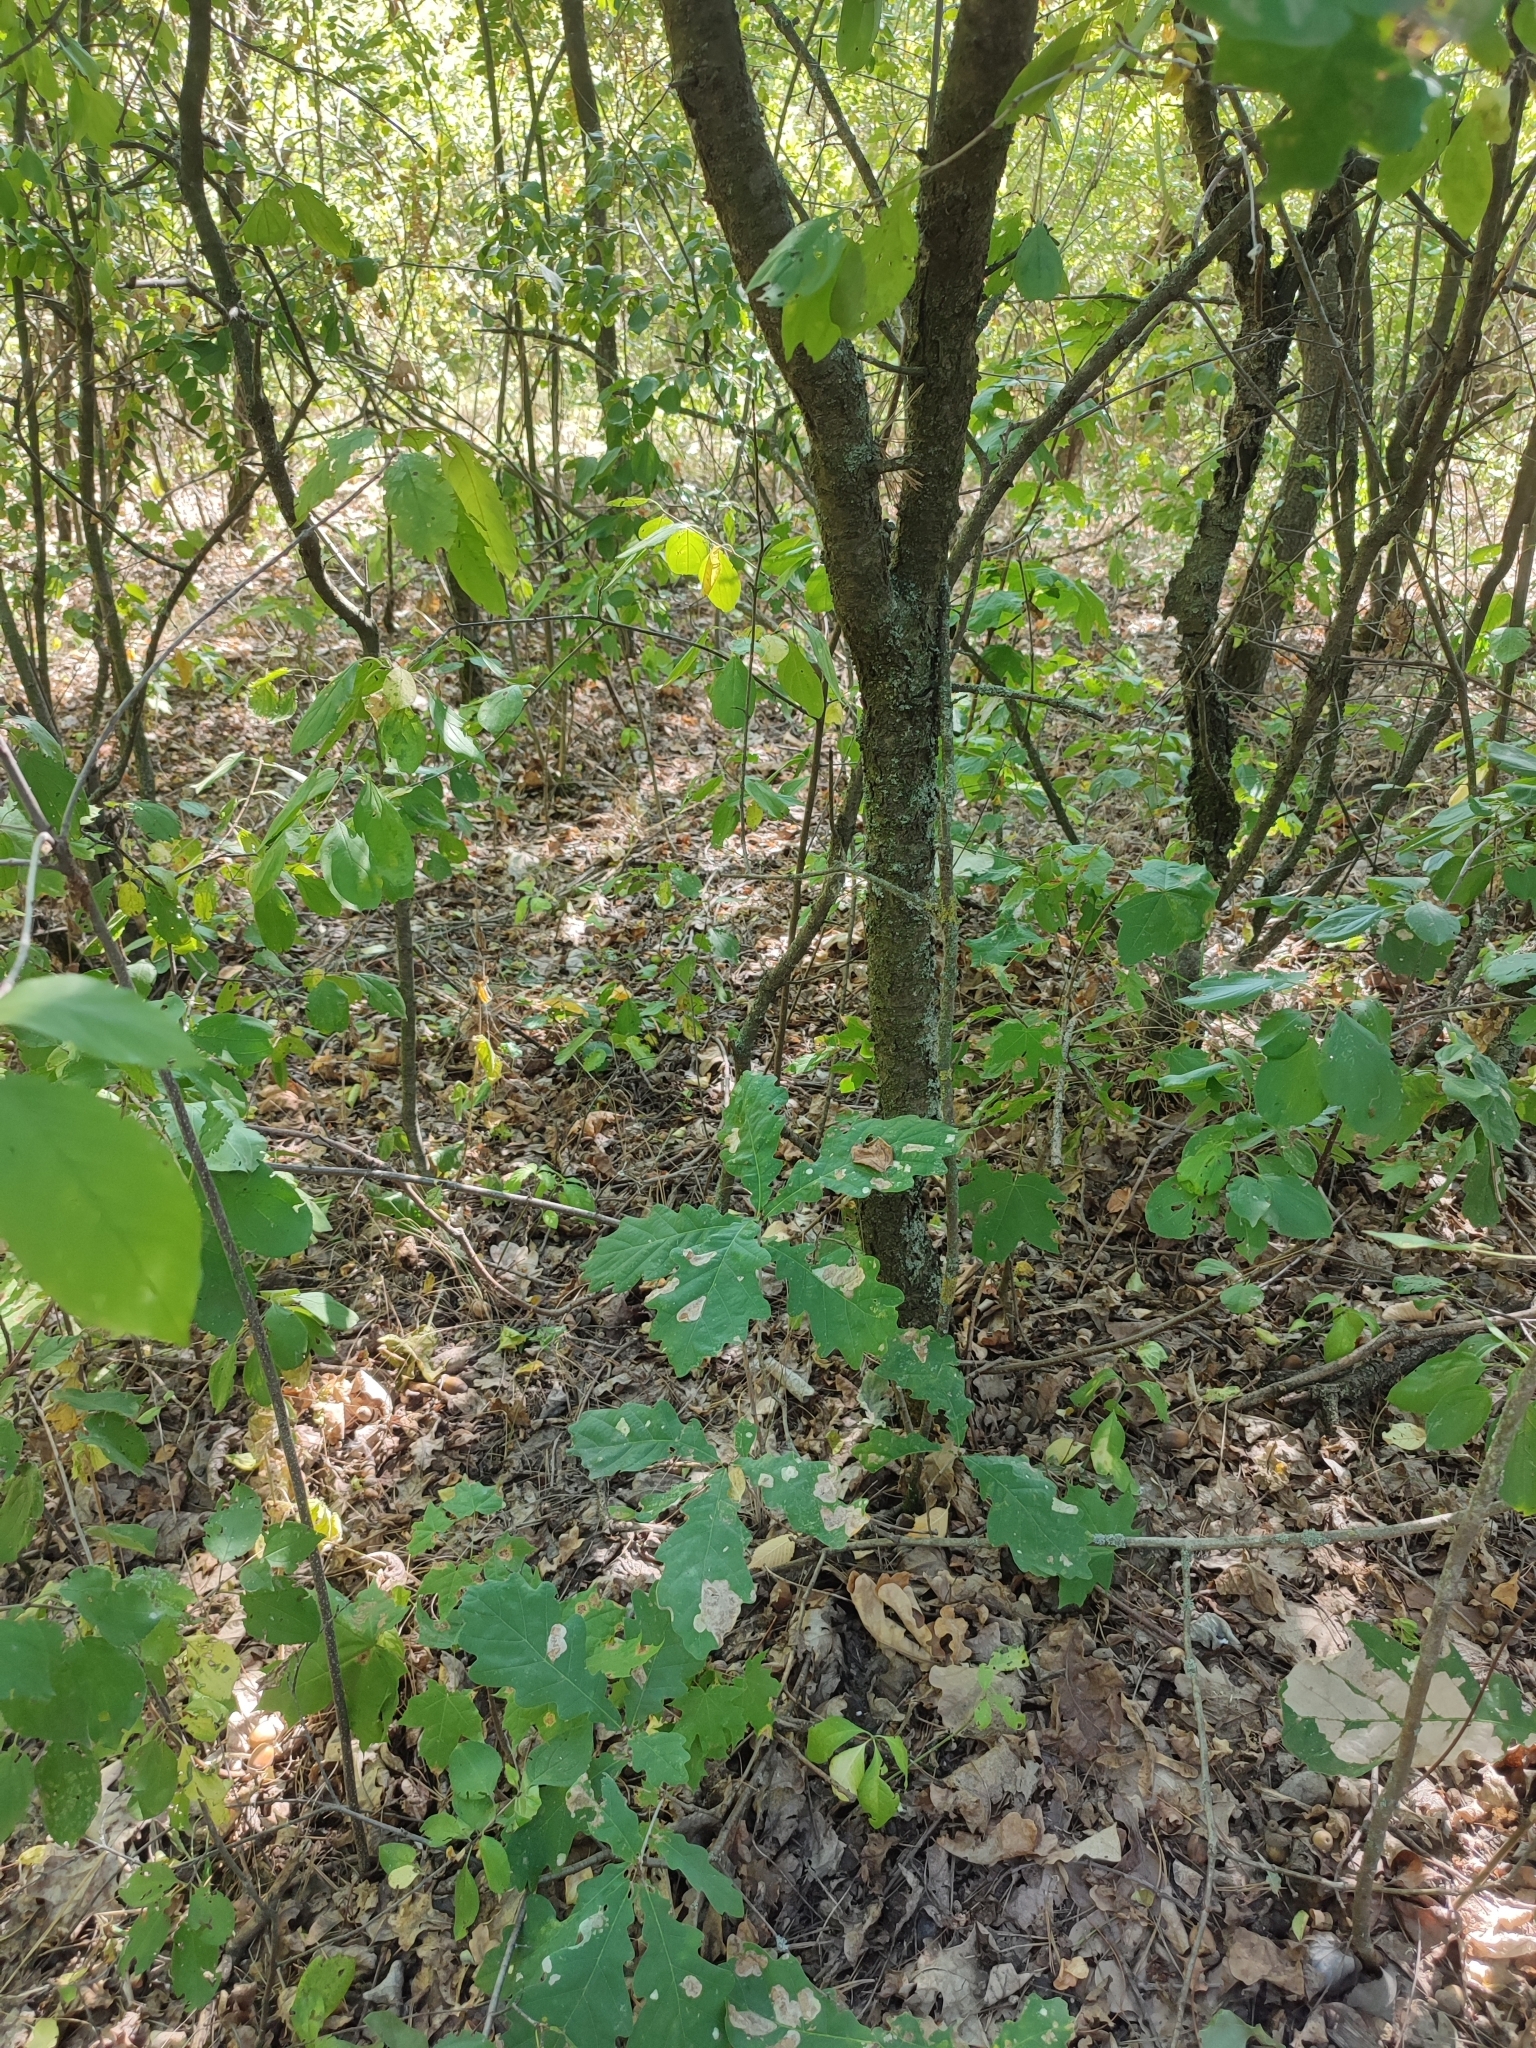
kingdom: Plantae
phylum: Tracheophyta
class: Magnoliopsida
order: Fagales
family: Fagaceae
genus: Quercus
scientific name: Quercus robur
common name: Pedunculate oak
